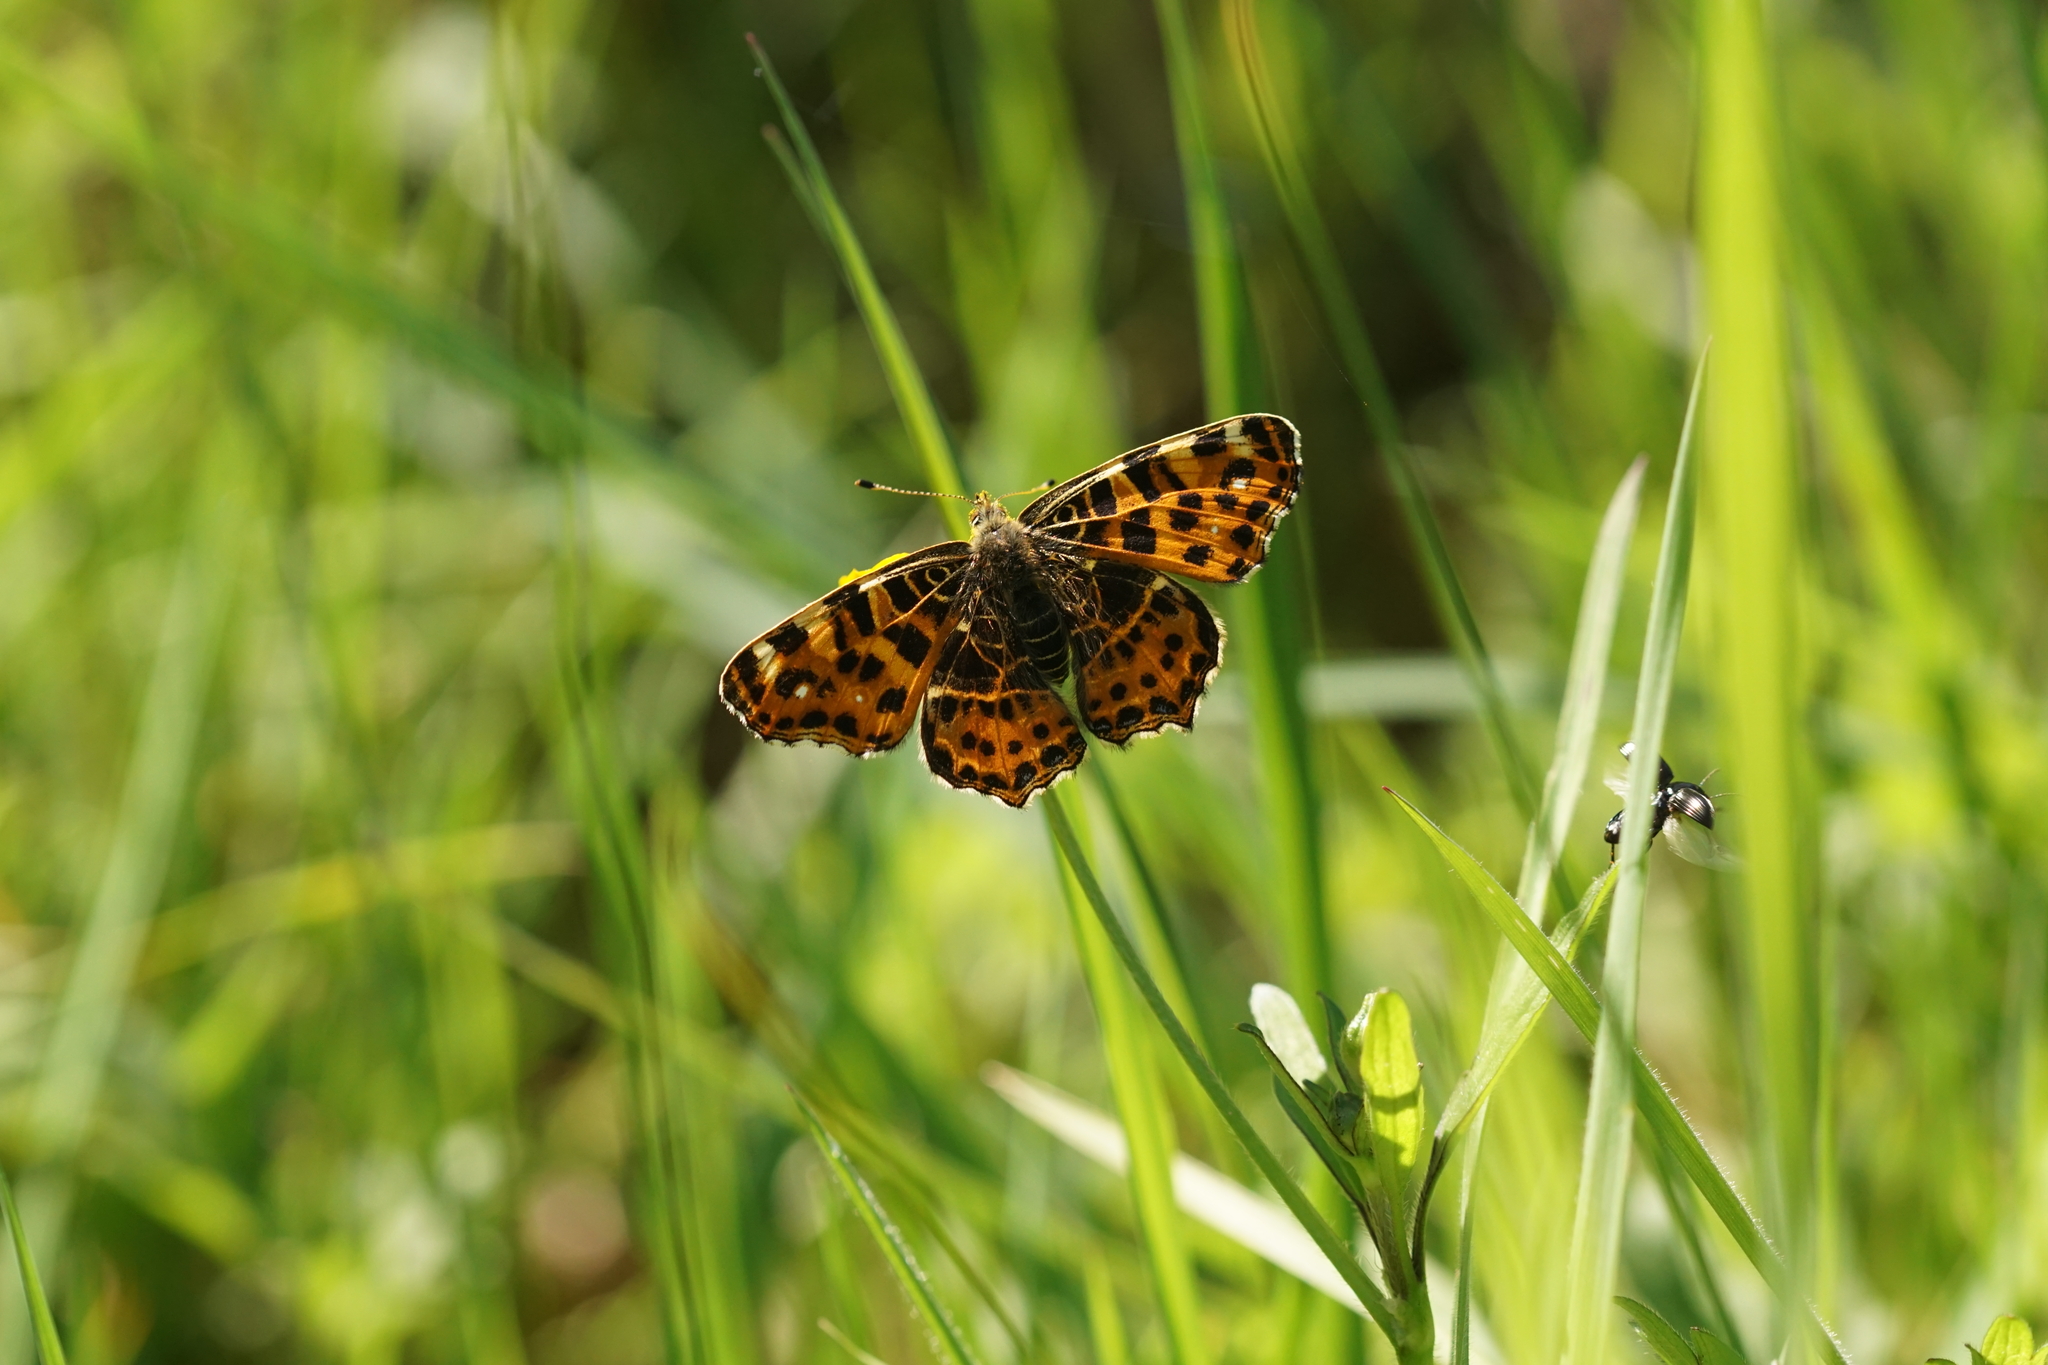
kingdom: Animalia
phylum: Arthropoda
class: Insecta
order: Lepidoptera
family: Nymphalidae
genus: Araschnia
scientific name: Araschnia levana
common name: Map butterfly
